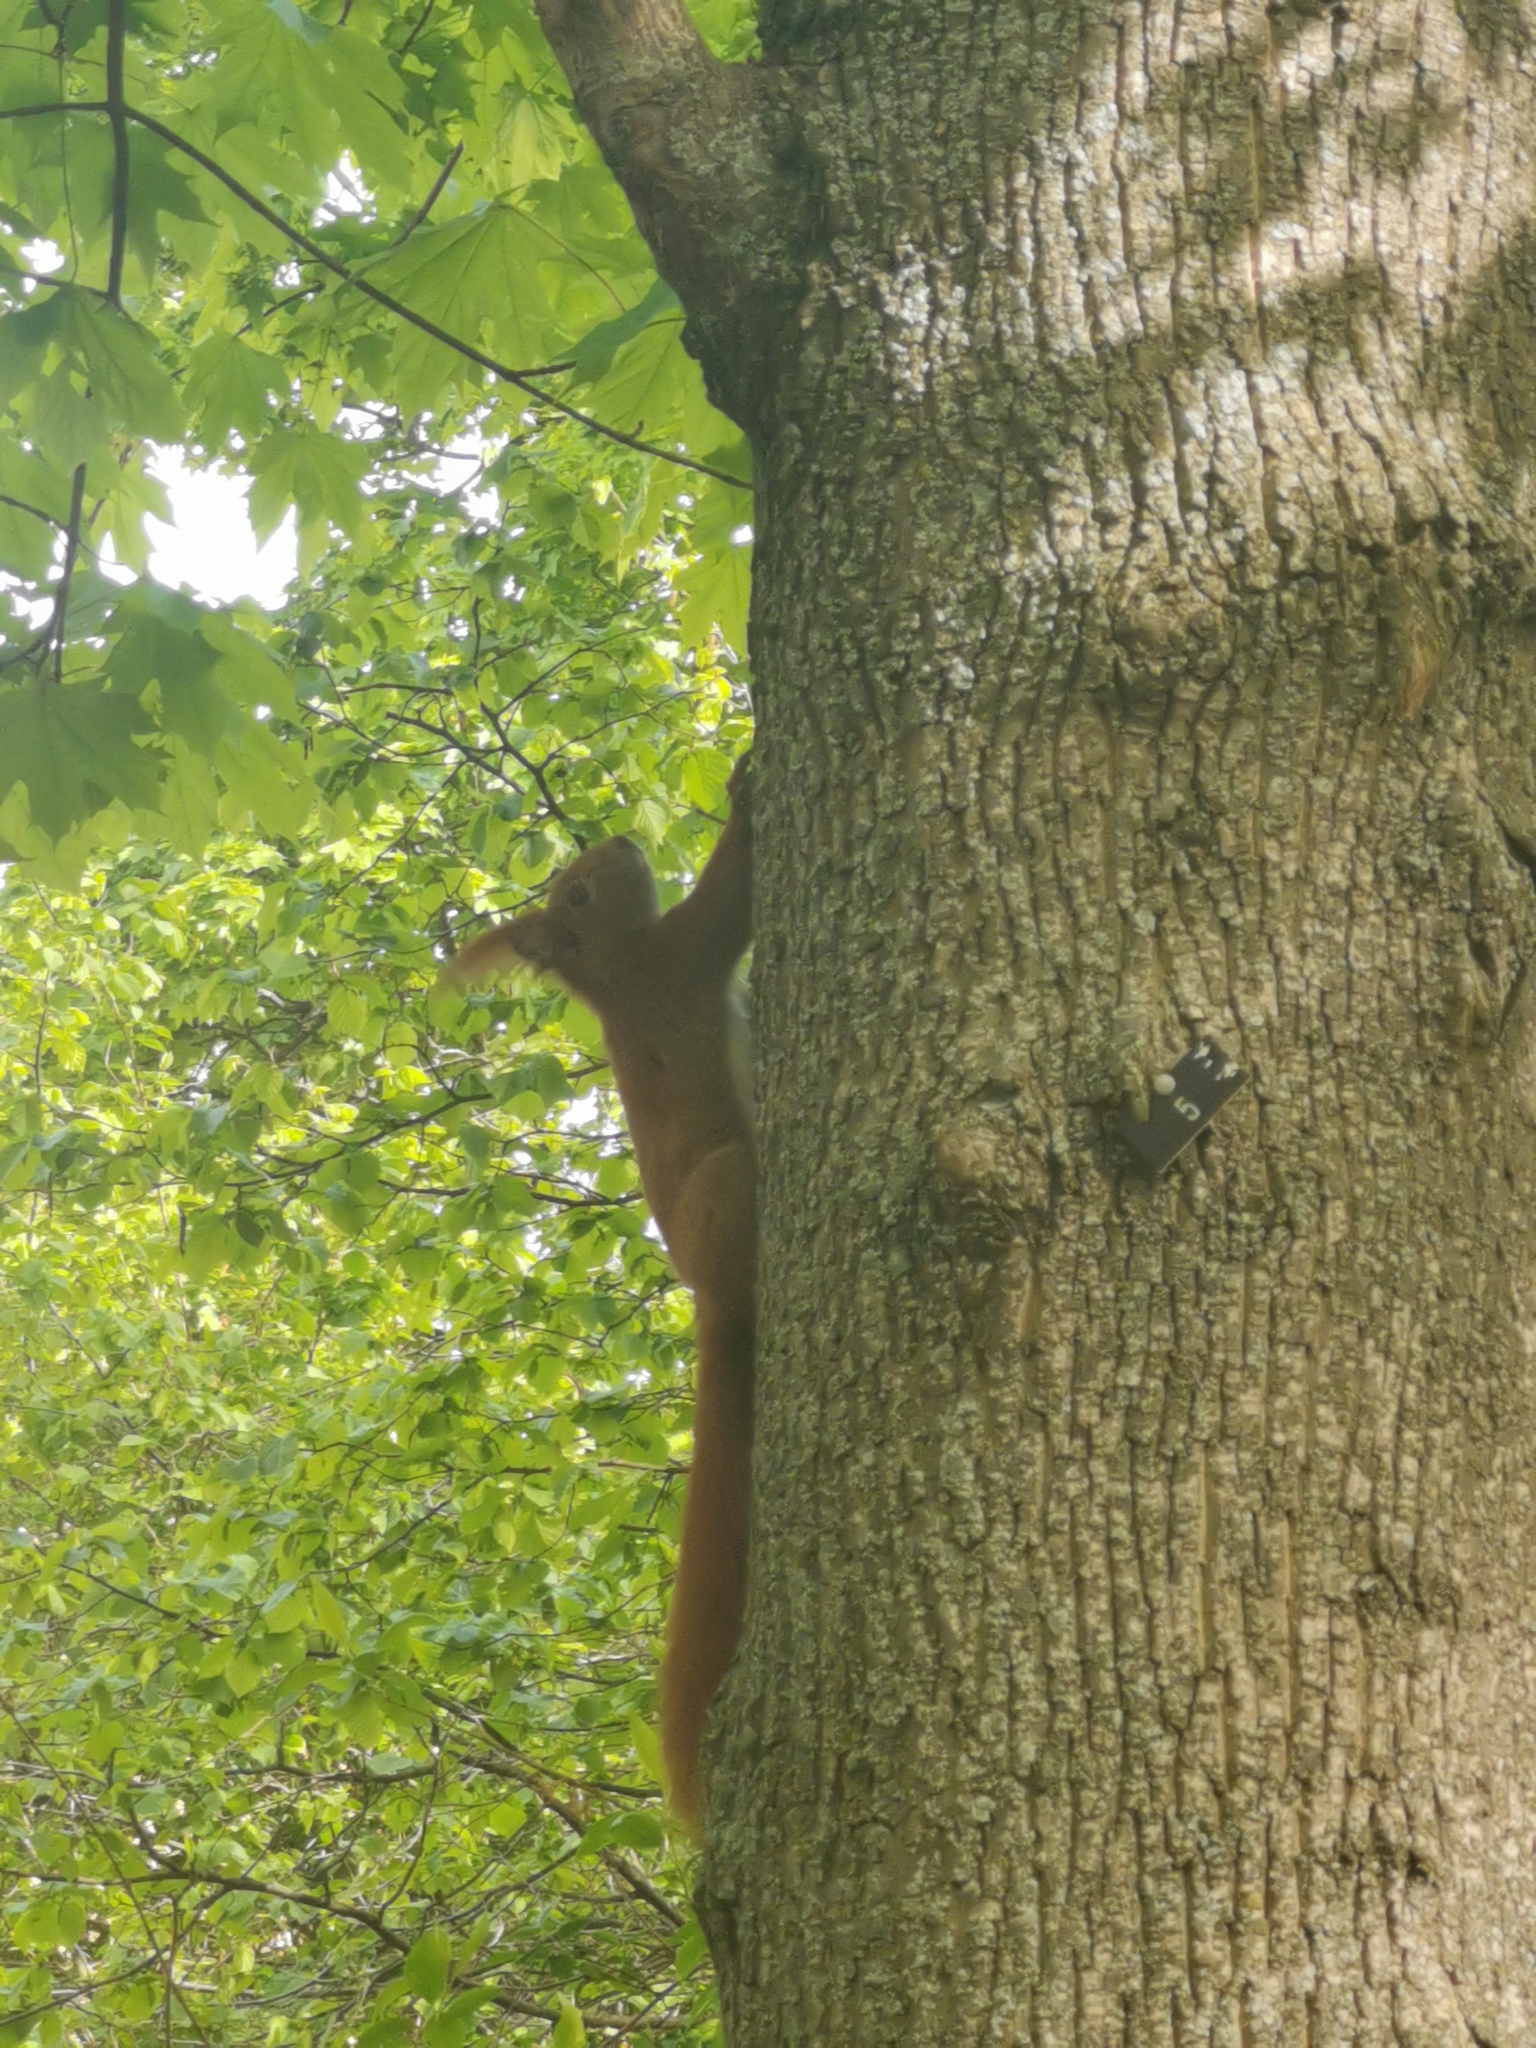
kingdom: Animalia
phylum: Chordata
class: Mammalia
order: Rodentia
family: Sciuridae
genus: Sciurus
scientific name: Sciurus vulgaris
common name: Eurasian red squirrel
